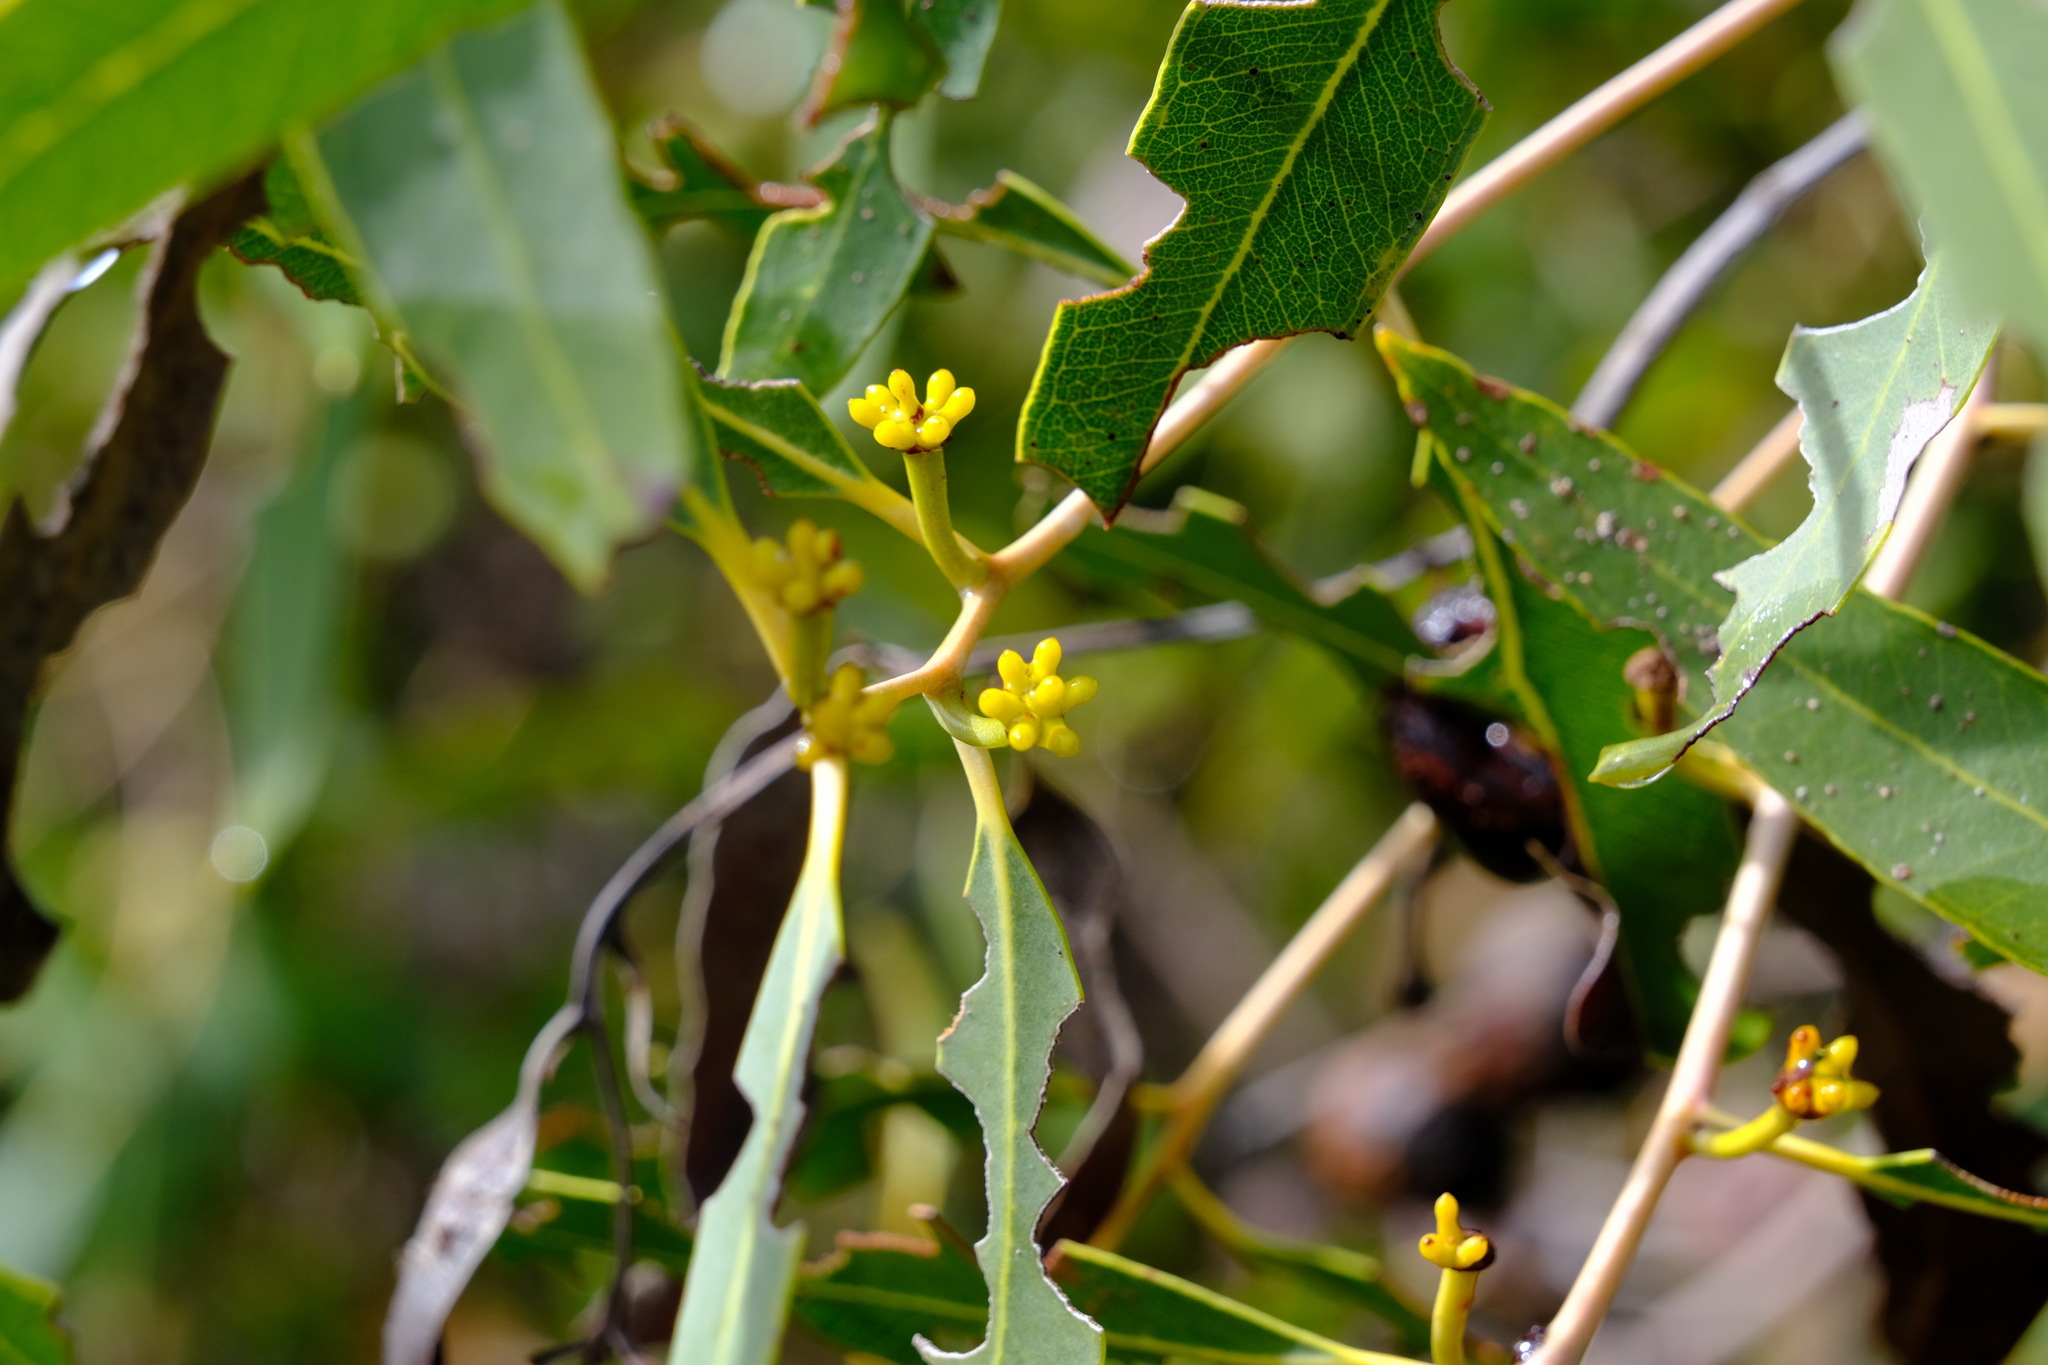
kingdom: Plantae
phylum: Tracheophyta
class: Magnoliopsida
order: Myrtales
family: Myrtaceae
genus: Eucalyptus
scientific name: Eucalyptus todtiana
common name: Coastal blackbutt
